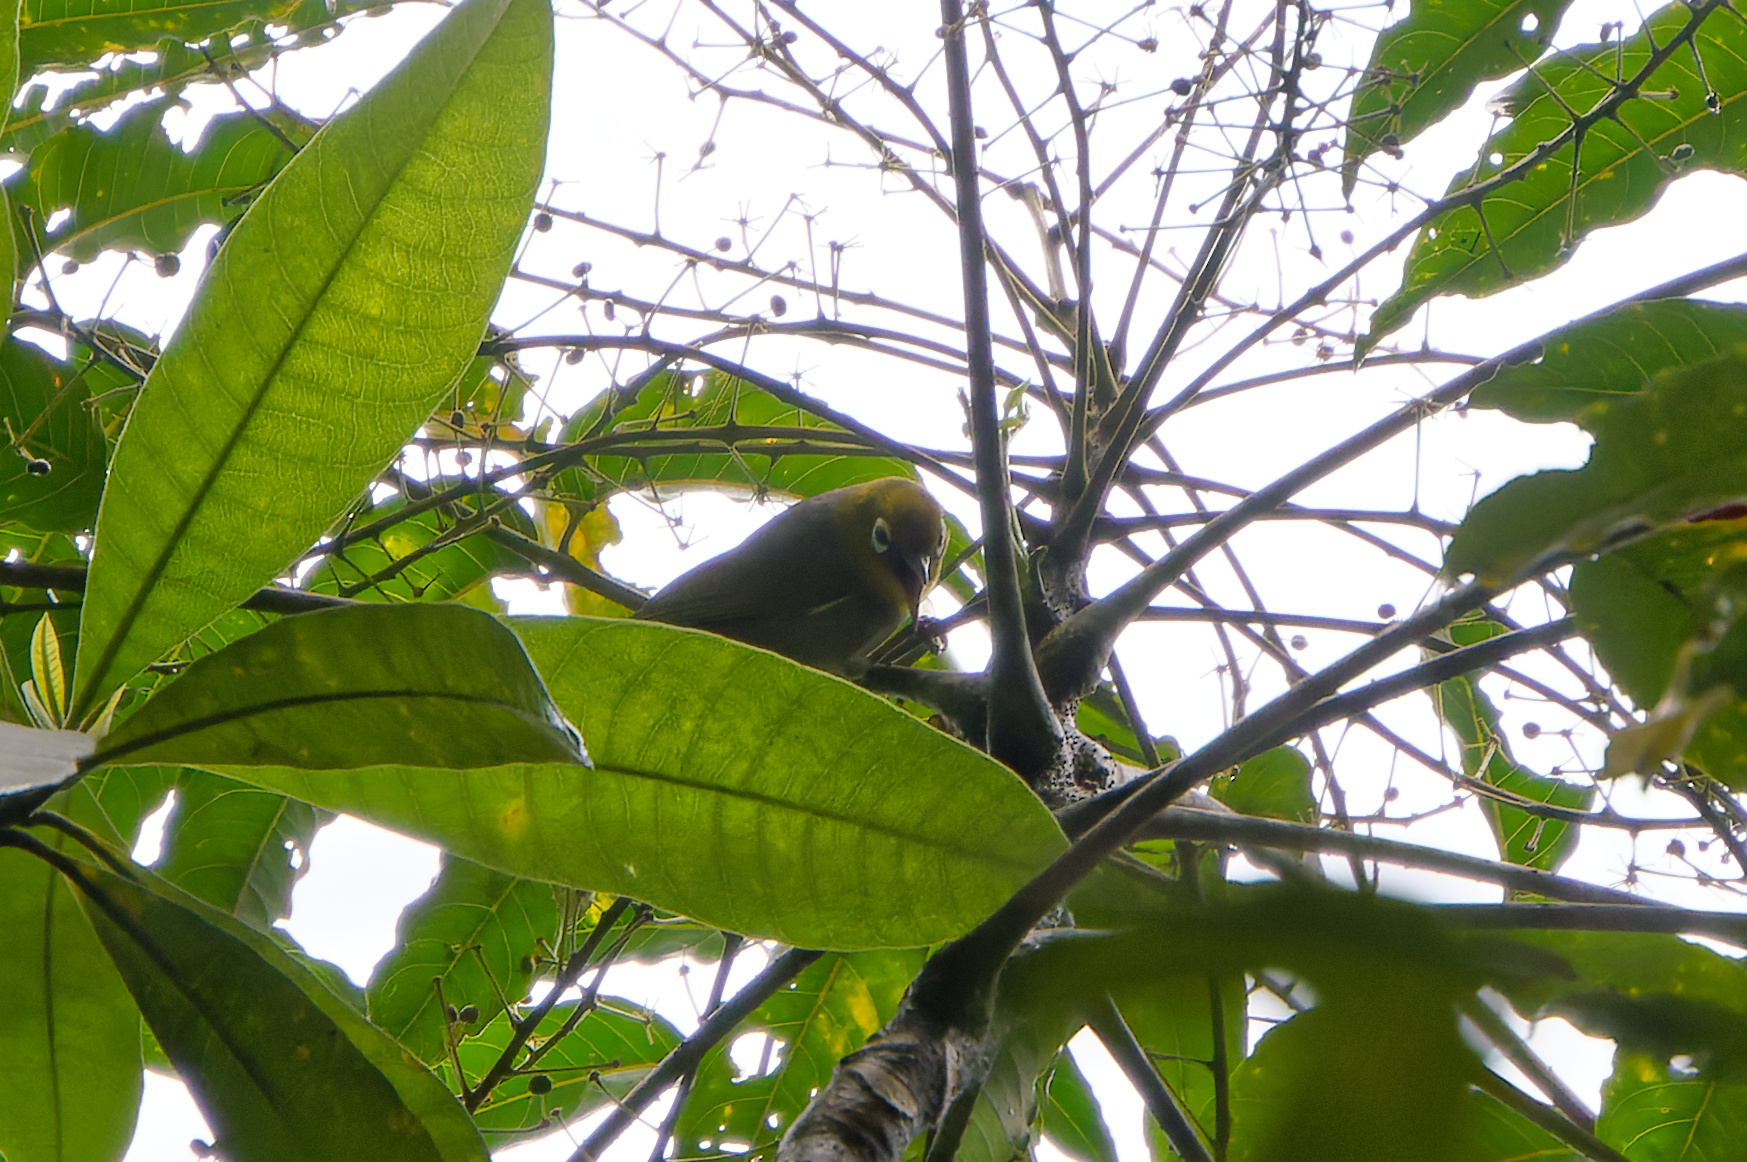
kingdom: Animalia
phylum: Chordata
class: Aves
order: Passeriformes
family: Zosteropidae
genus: Zosterops
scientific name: Zosterops lateralis
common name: Silvereye
